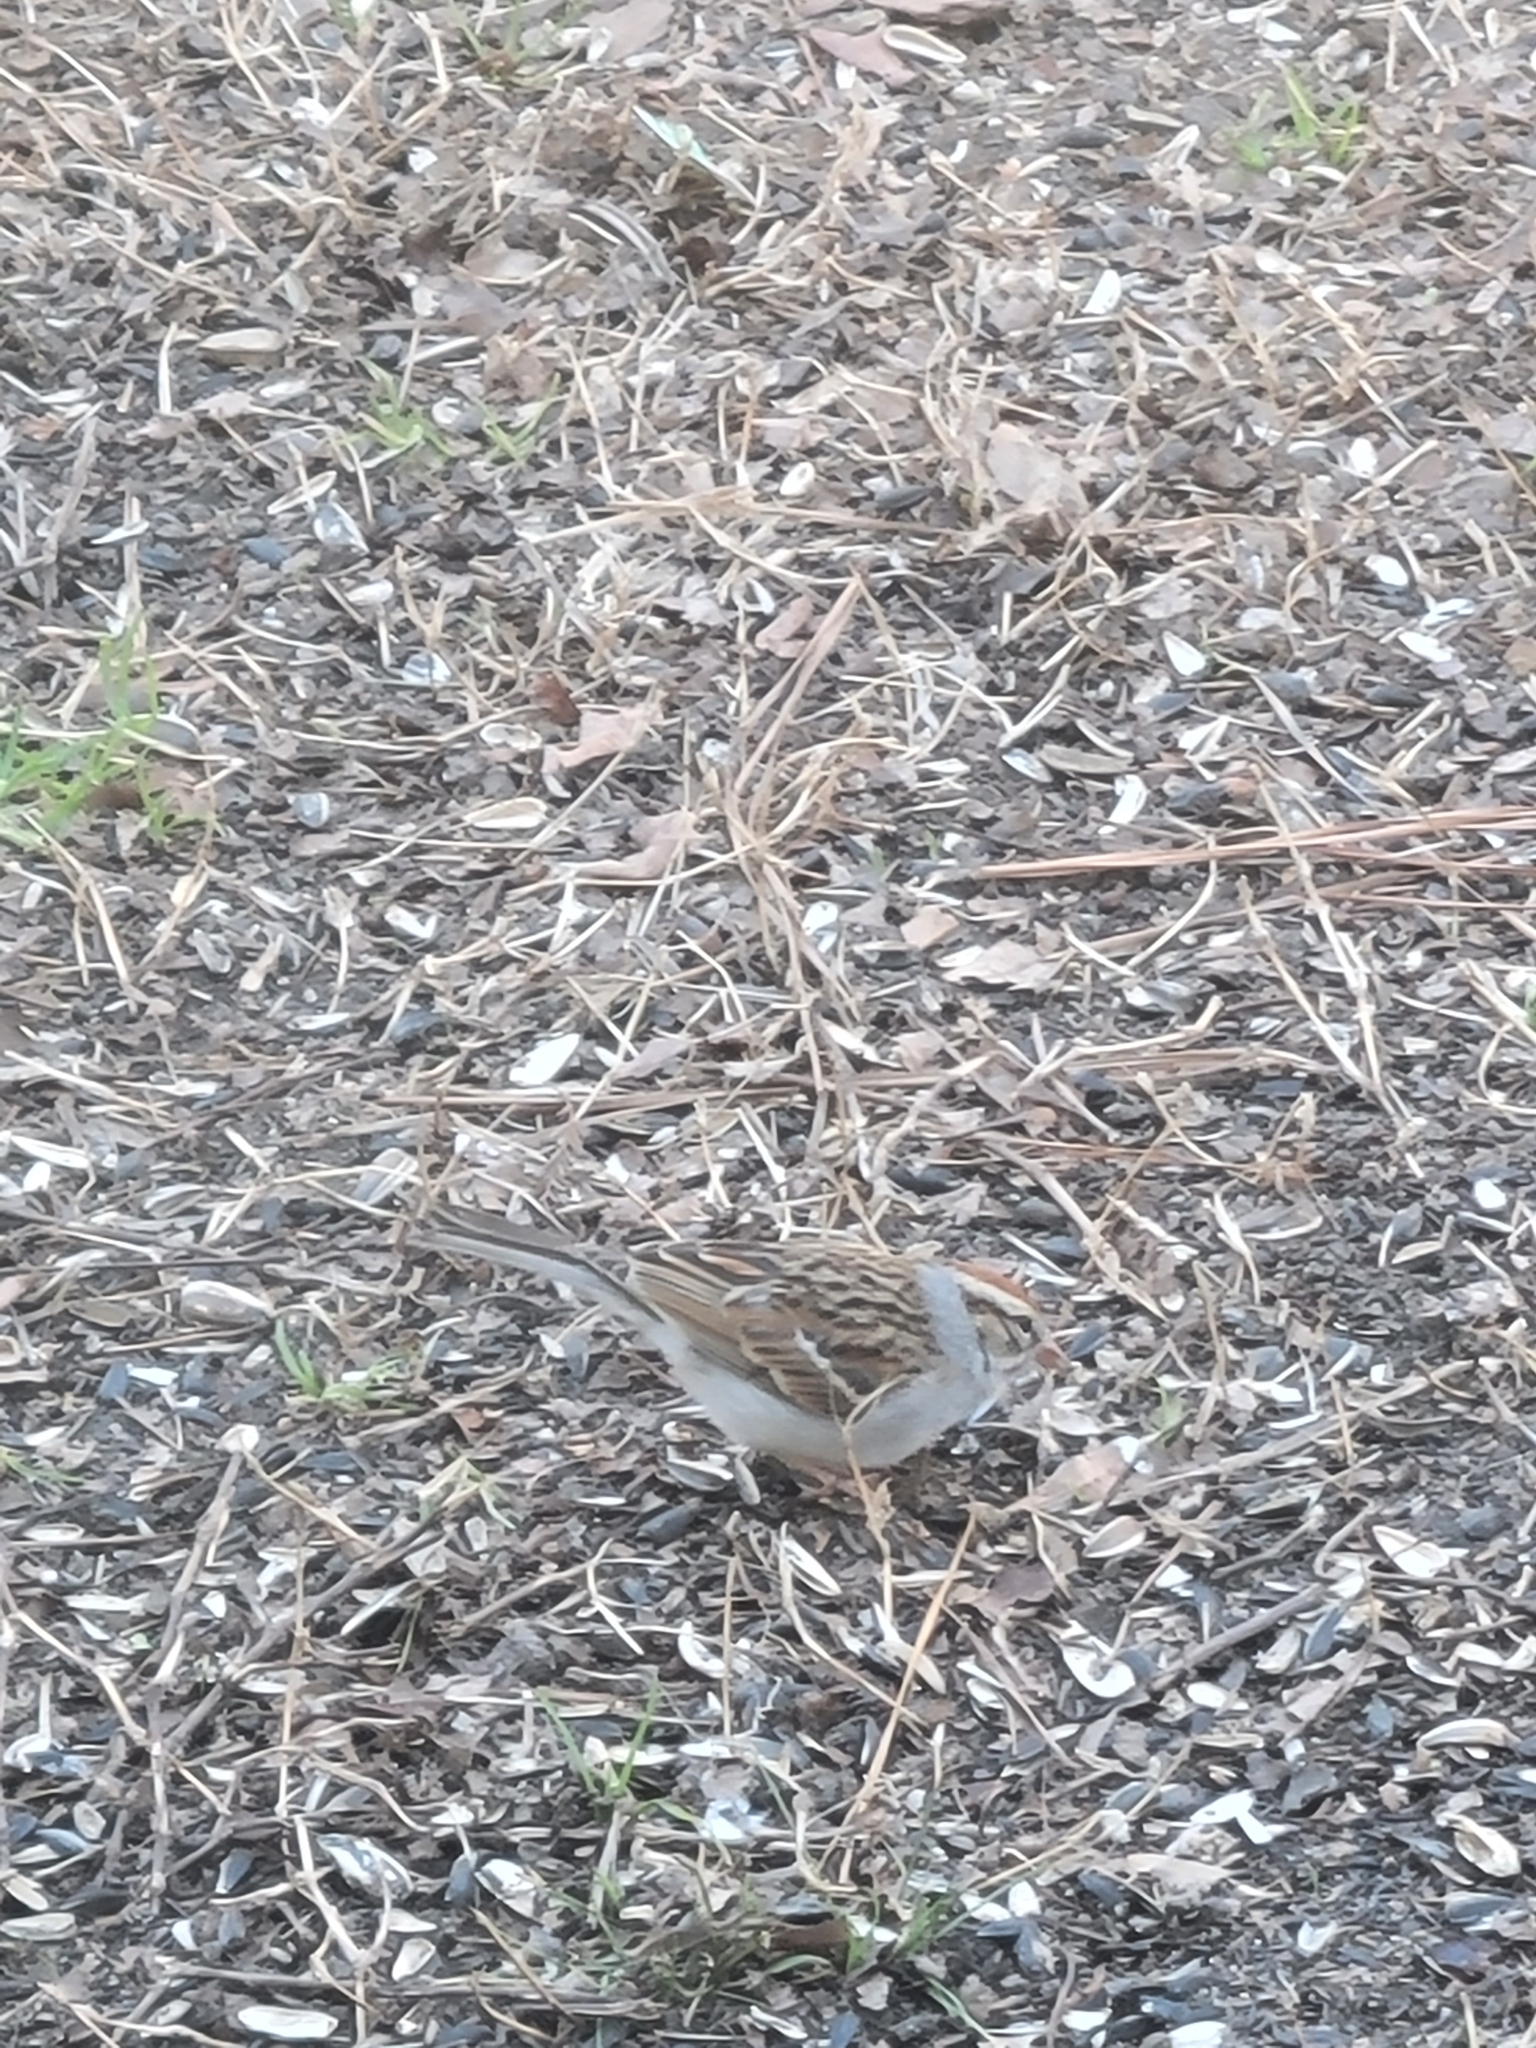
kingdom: Animalia
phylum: Chordata
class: Aves
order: Passeriformes
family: Passerellidae
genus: Spizella
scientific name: Spizella passerina
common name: Chipping sparrow
